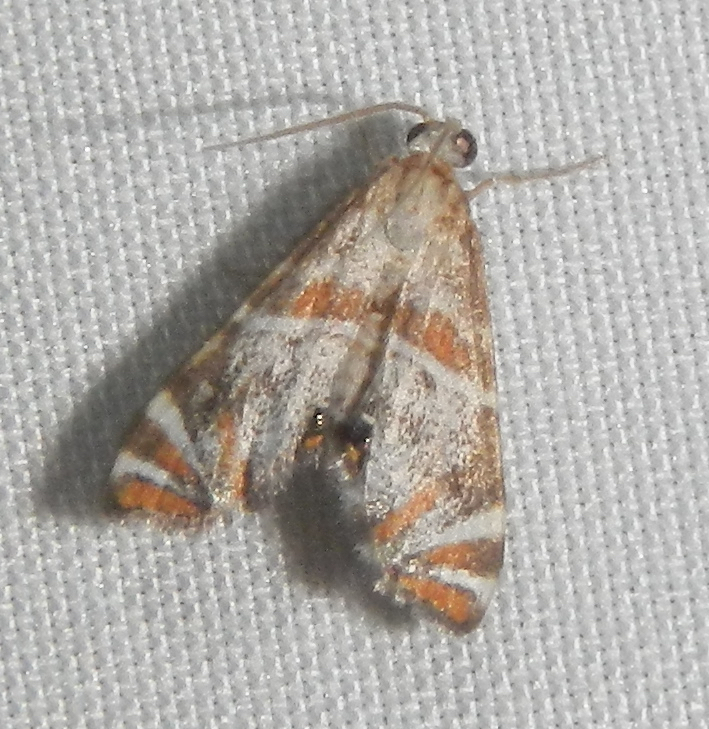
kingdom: Animalia
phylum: Arthropoda
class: Insecta
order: Lepidoptera
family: Crambidae
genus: Petrophila
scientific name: Petrophila jaliscalis
